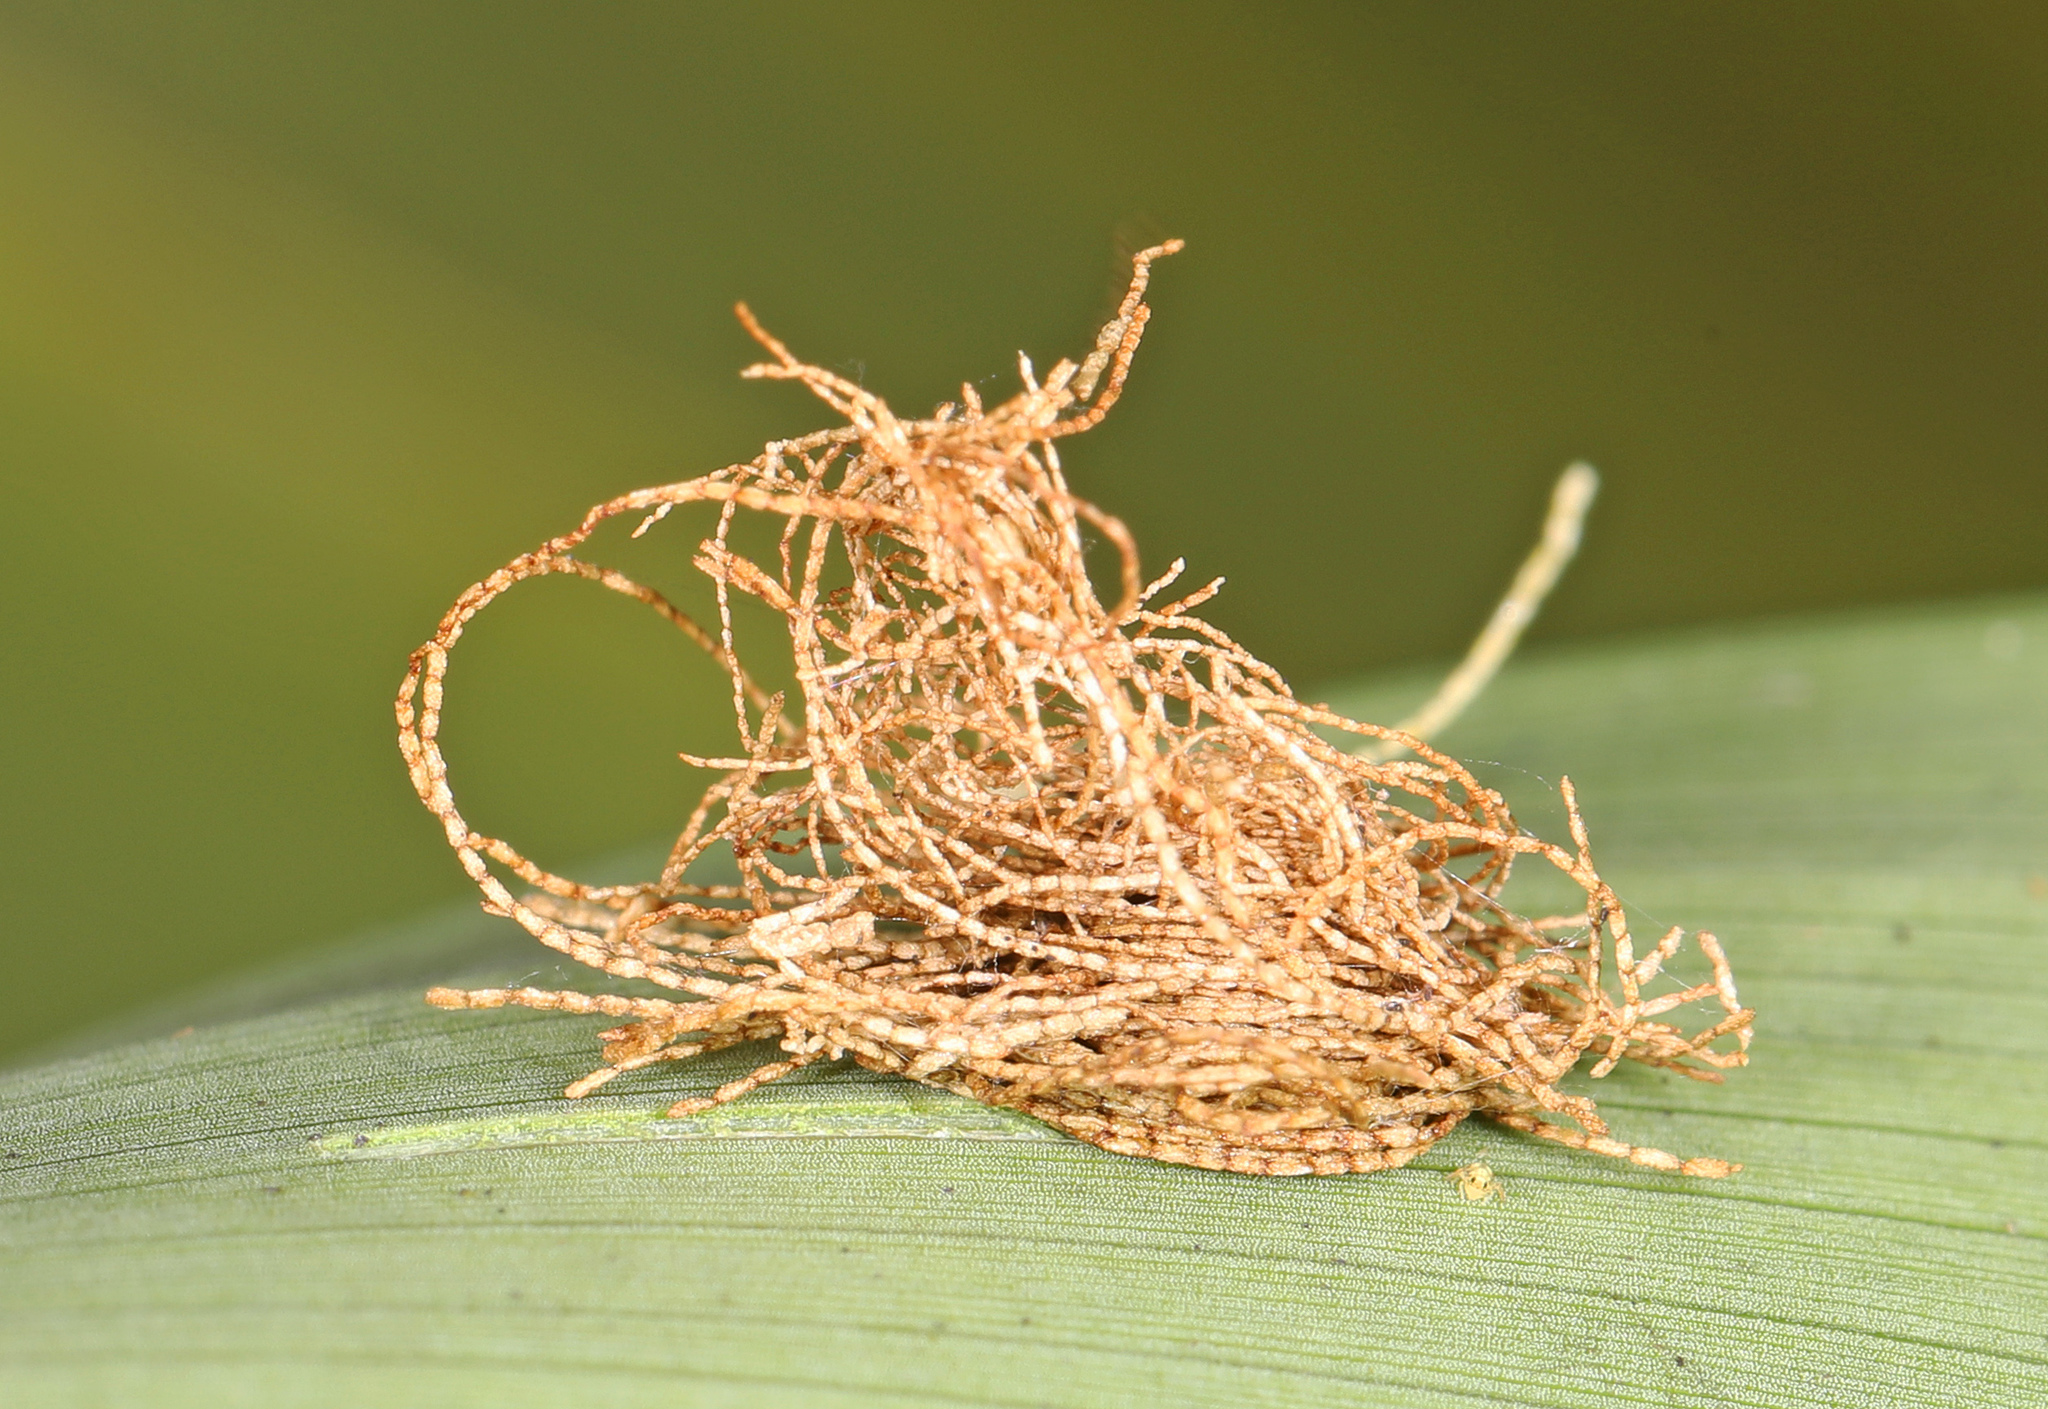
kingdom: Animalia
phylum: Arthropoda
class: Insecta
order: Coleoptera
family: Chrysomelidae
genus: Hemisphaerota
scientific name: Hemisphaerota cyanea
